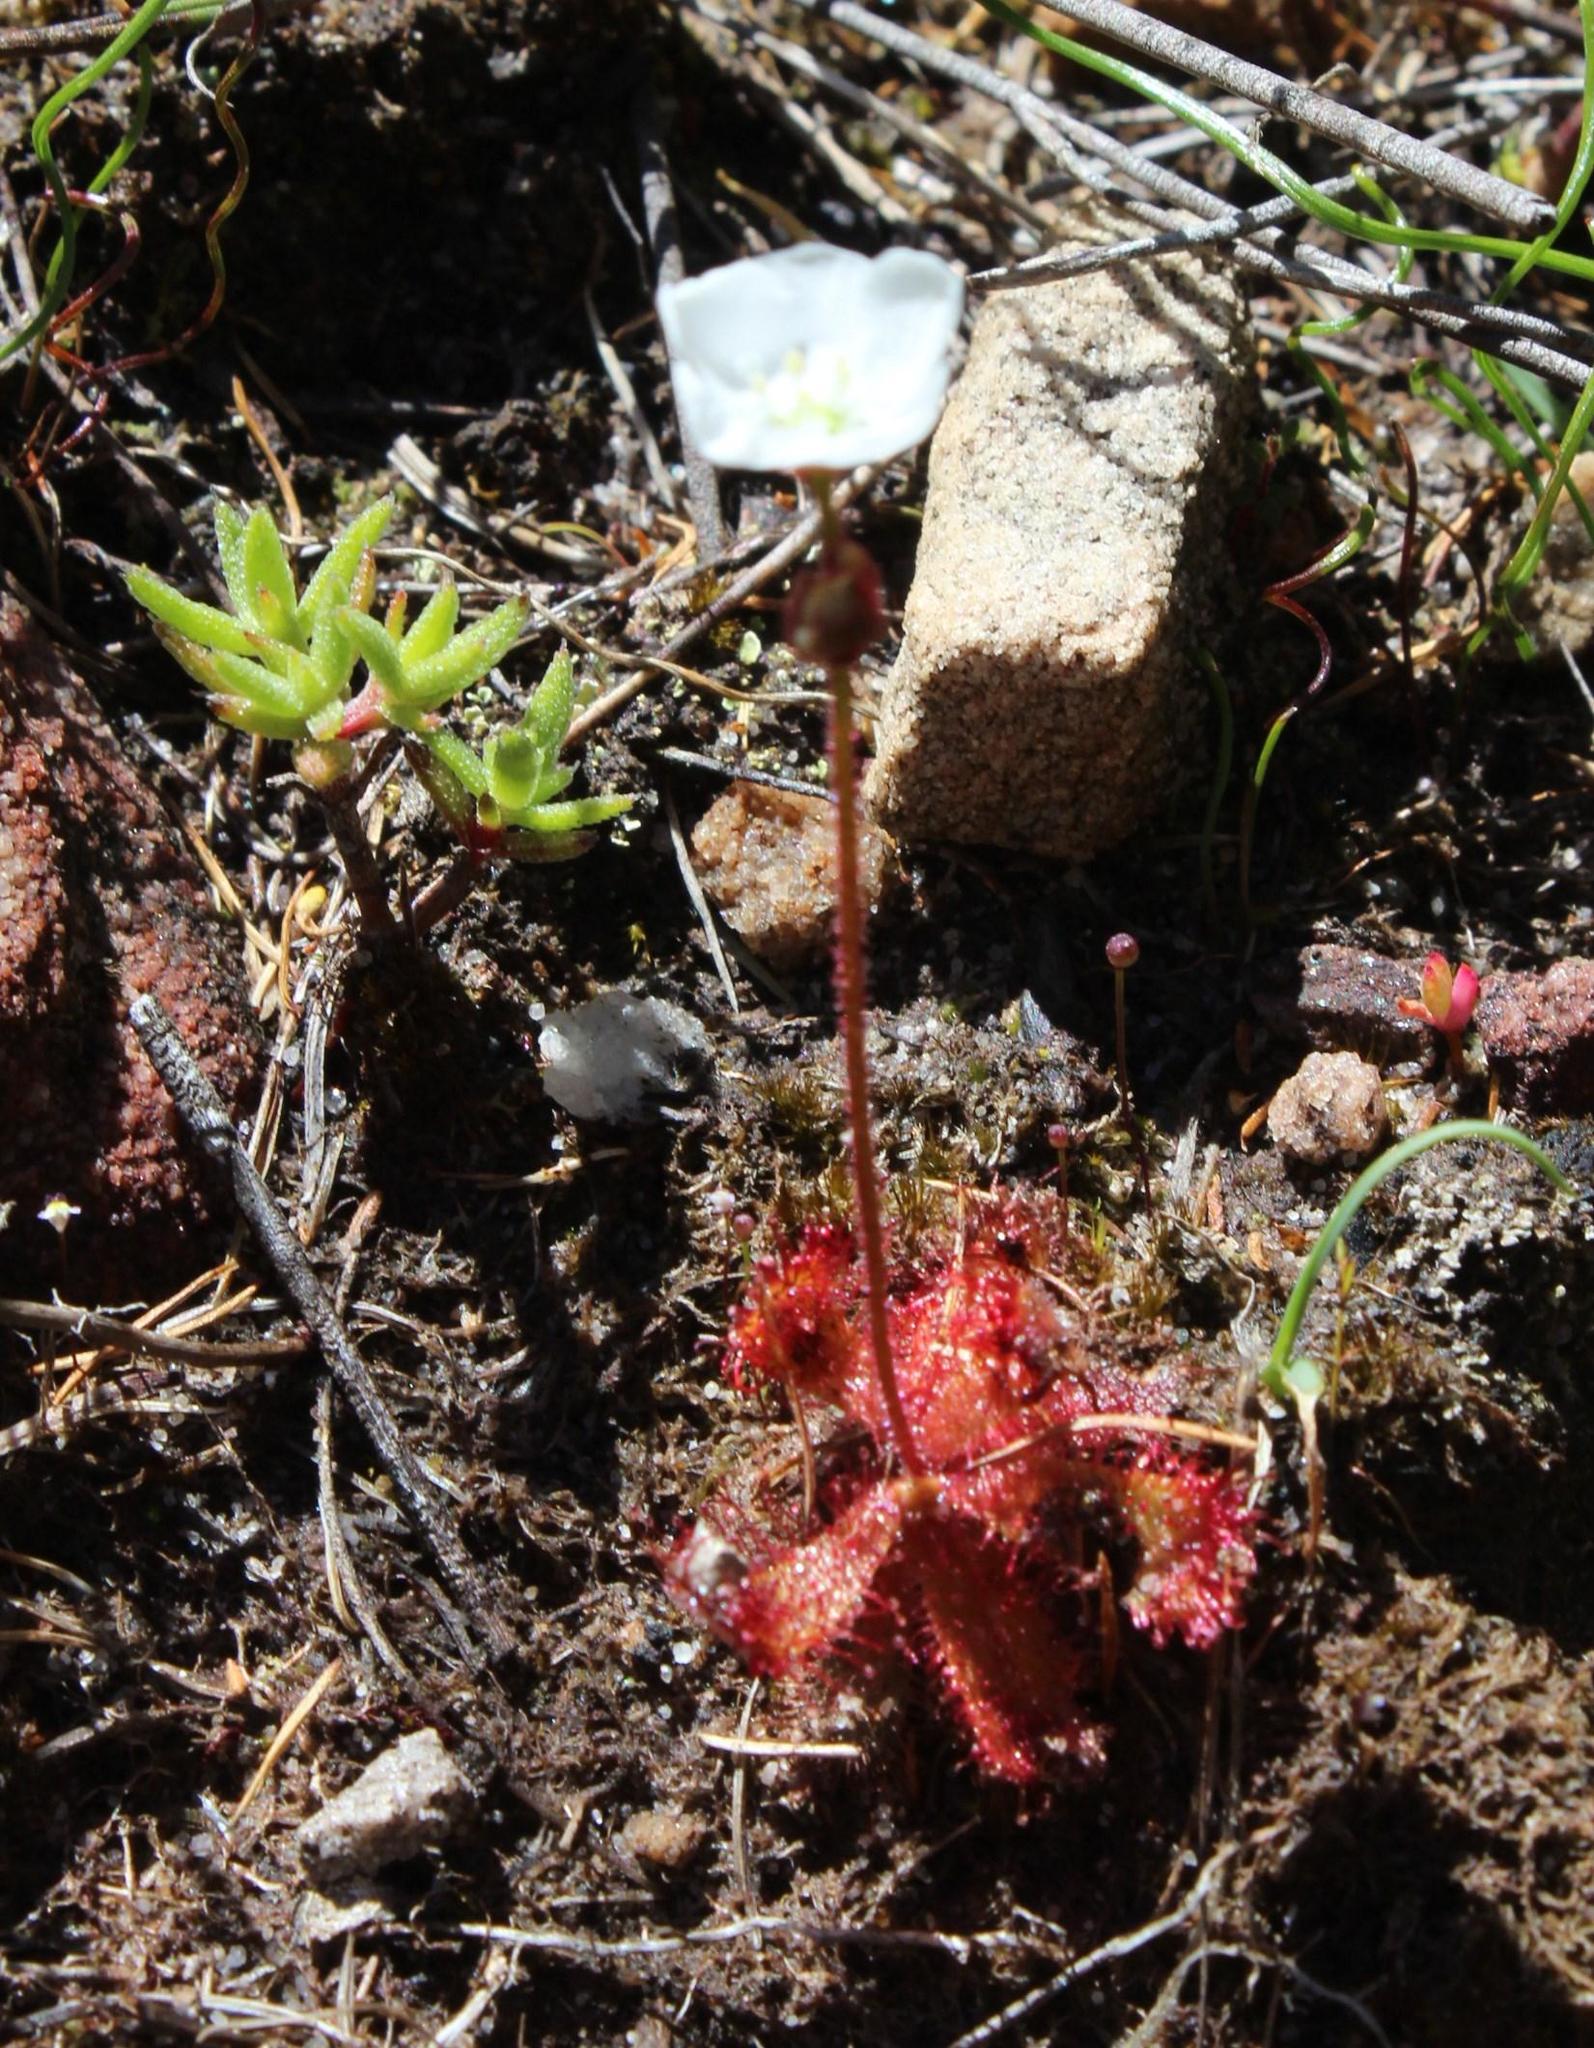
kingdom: Plantae
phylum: Tracheophyta
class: Magnoliopsida
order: Caryophyllales
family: Droseraceae
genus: Drosera
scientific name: Drosera trinervia
